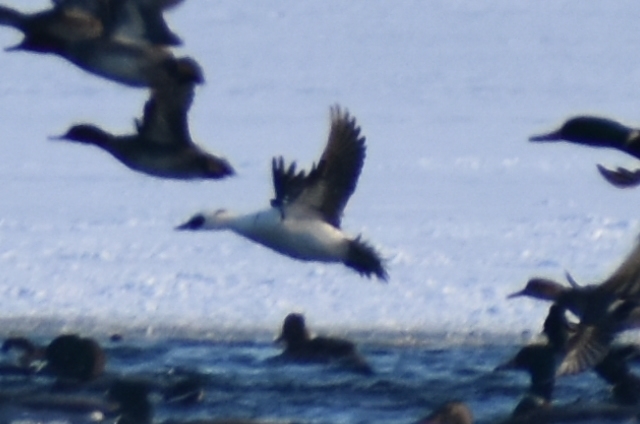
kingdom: Animalia
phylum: Chordata
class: Aves
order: Anseriformes
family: Anatidae
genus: Mergellus
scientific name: Mergellus albellus
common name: Smew
